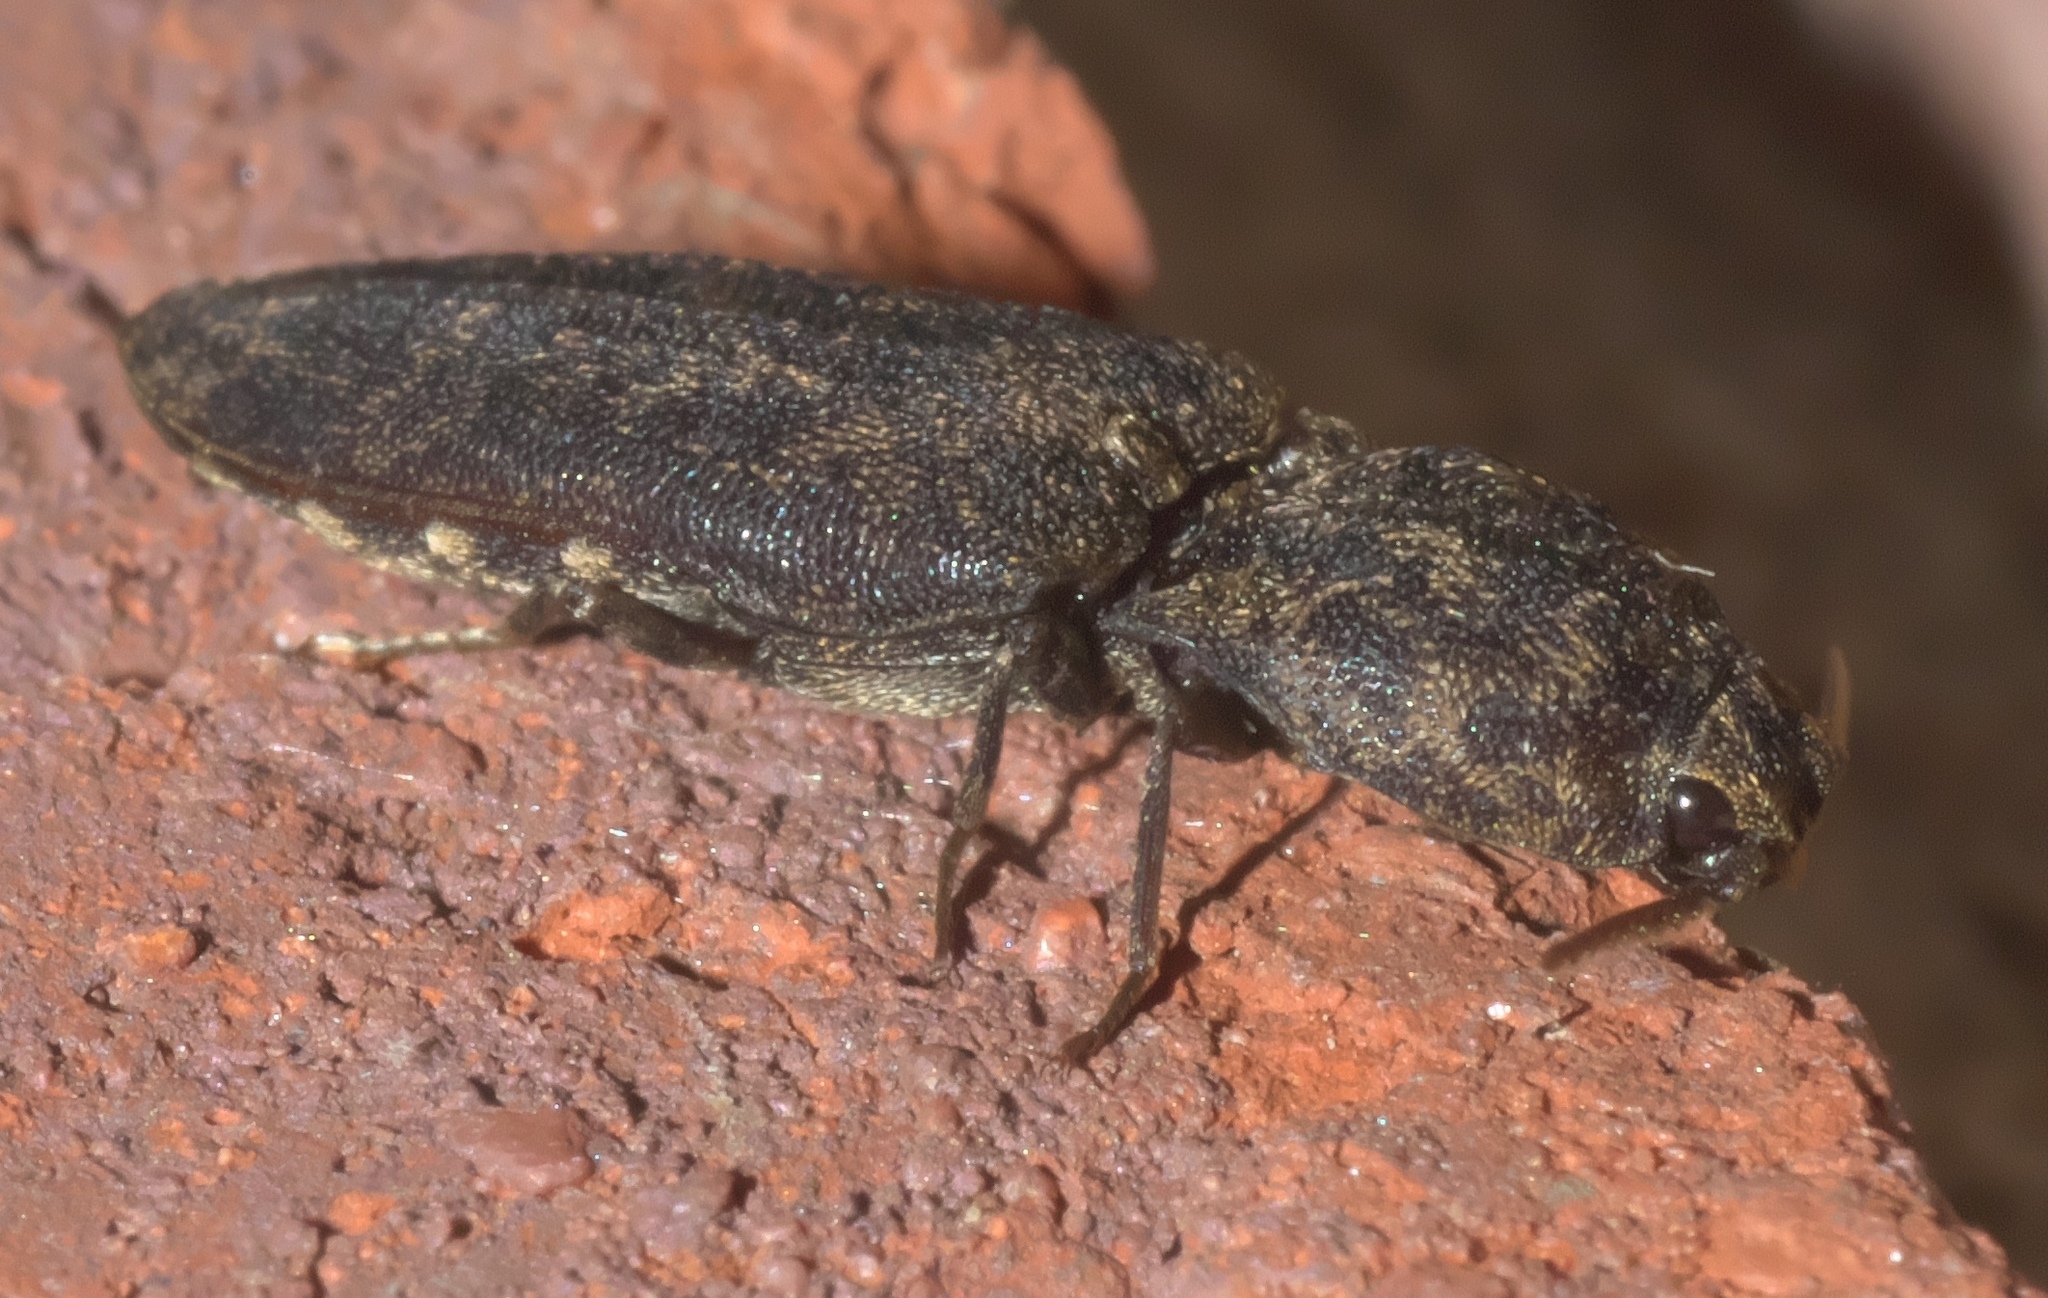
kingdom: Animalia
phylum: Arthropoda
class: Insecta
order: Coleoptera
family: Elateridae
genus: Lacon
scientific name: Lacon marmoratus
